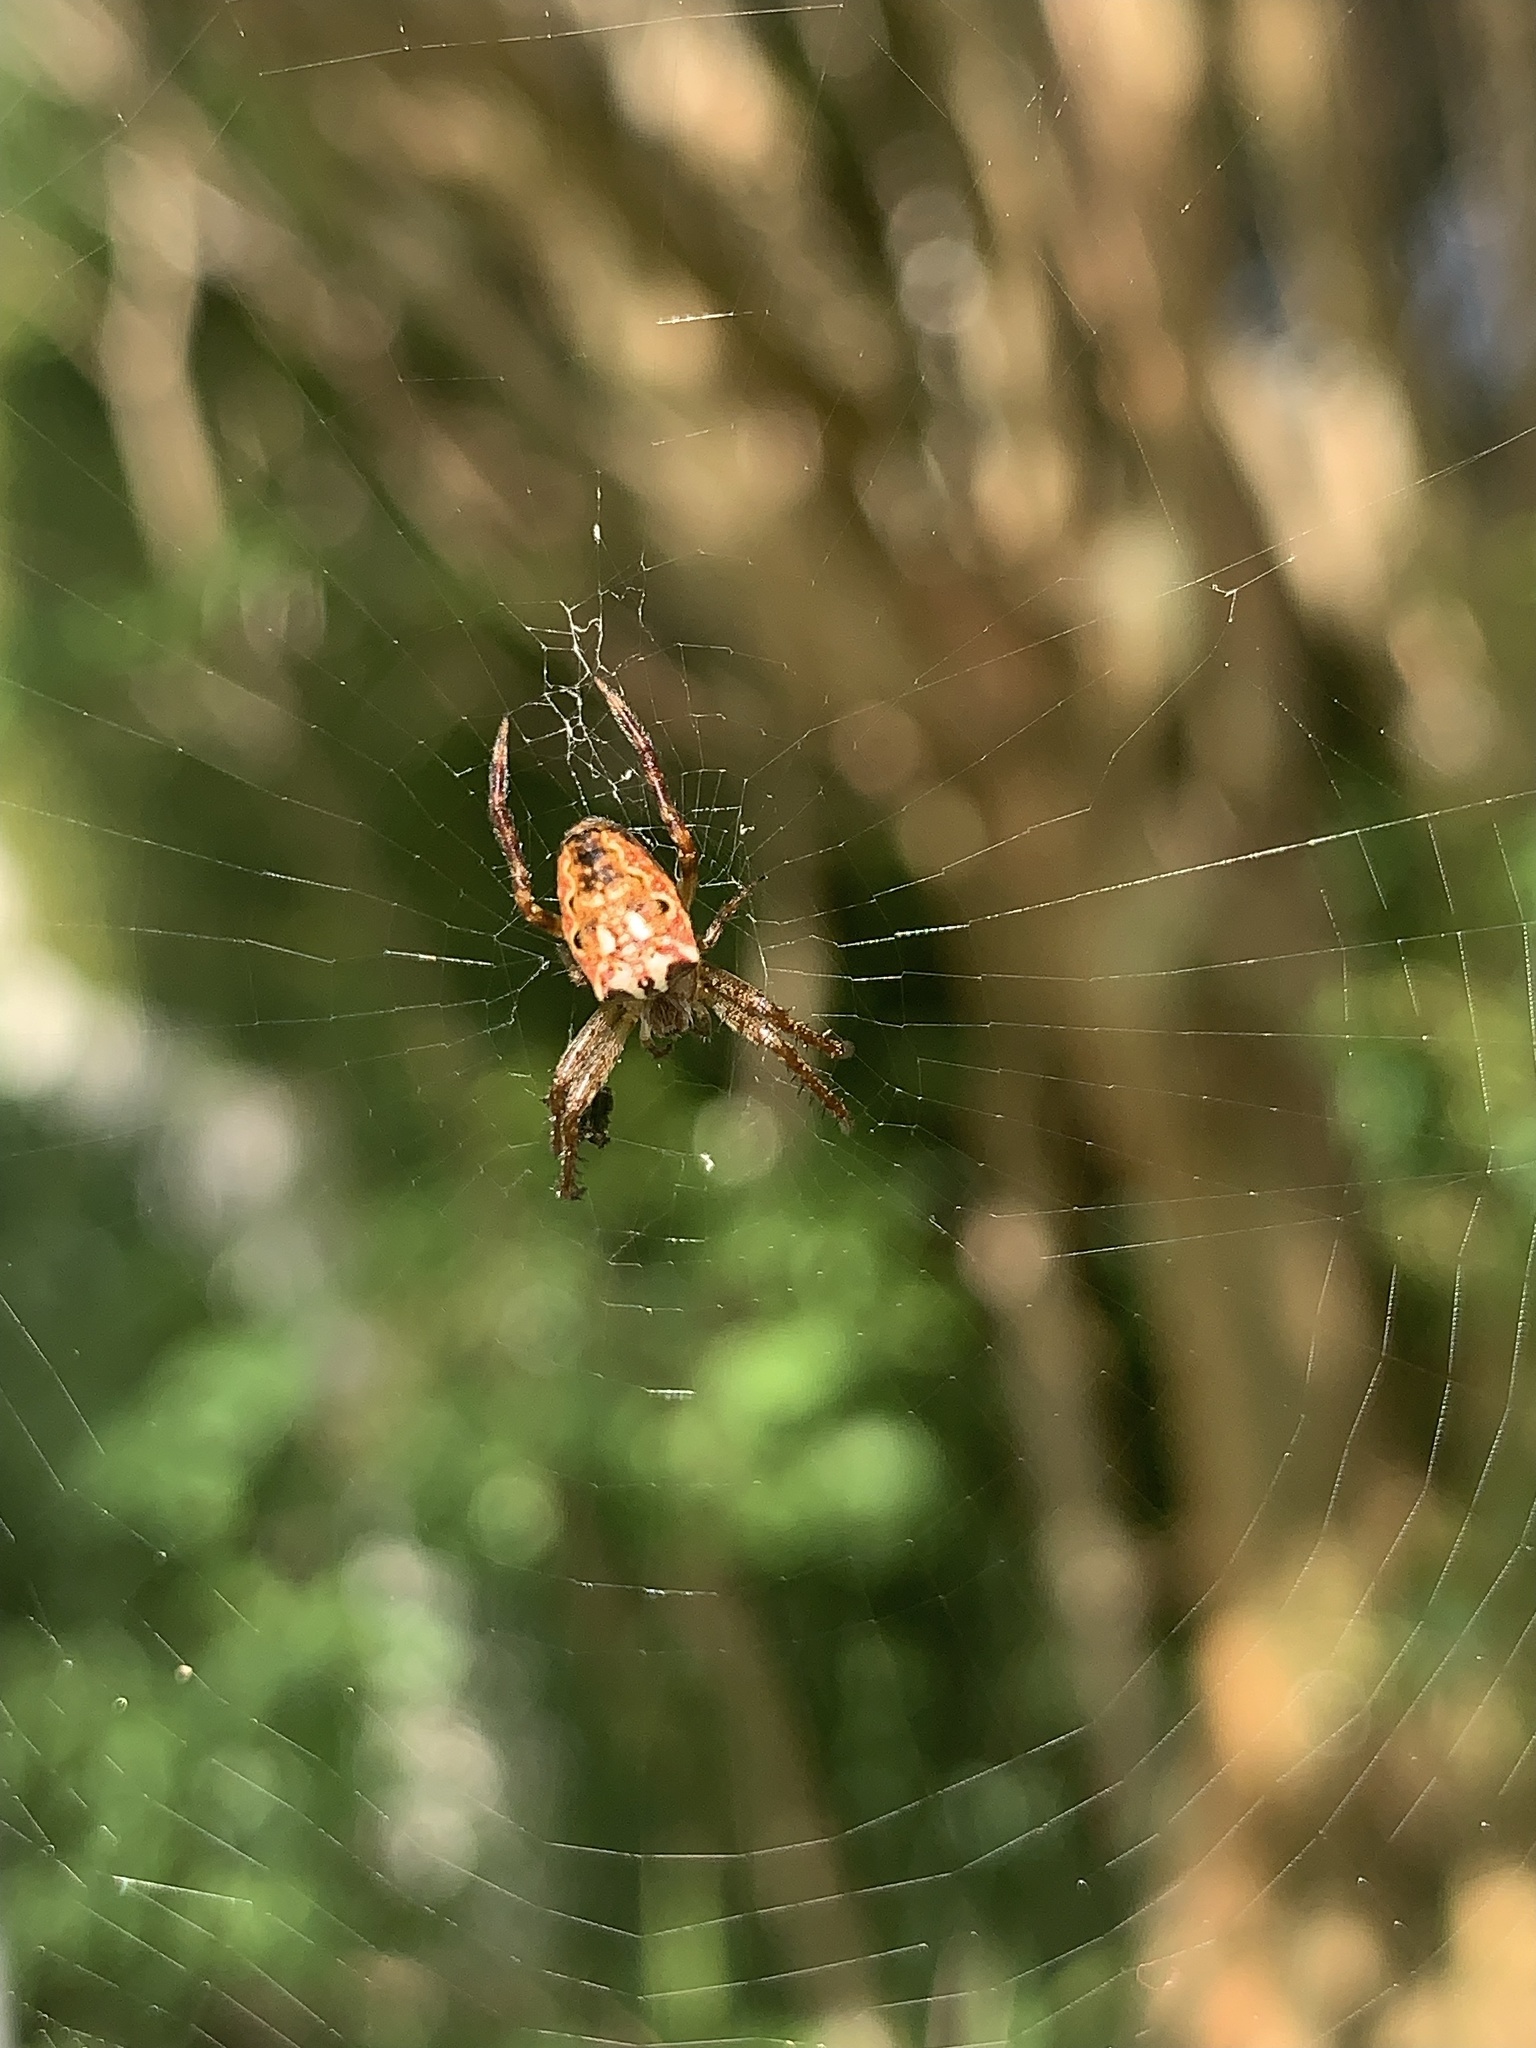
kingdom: Animalia
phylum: Arthropoda
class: Arachnida
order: Araneae
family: Araneidae
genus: Plebs
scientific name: Plebs eburnus
